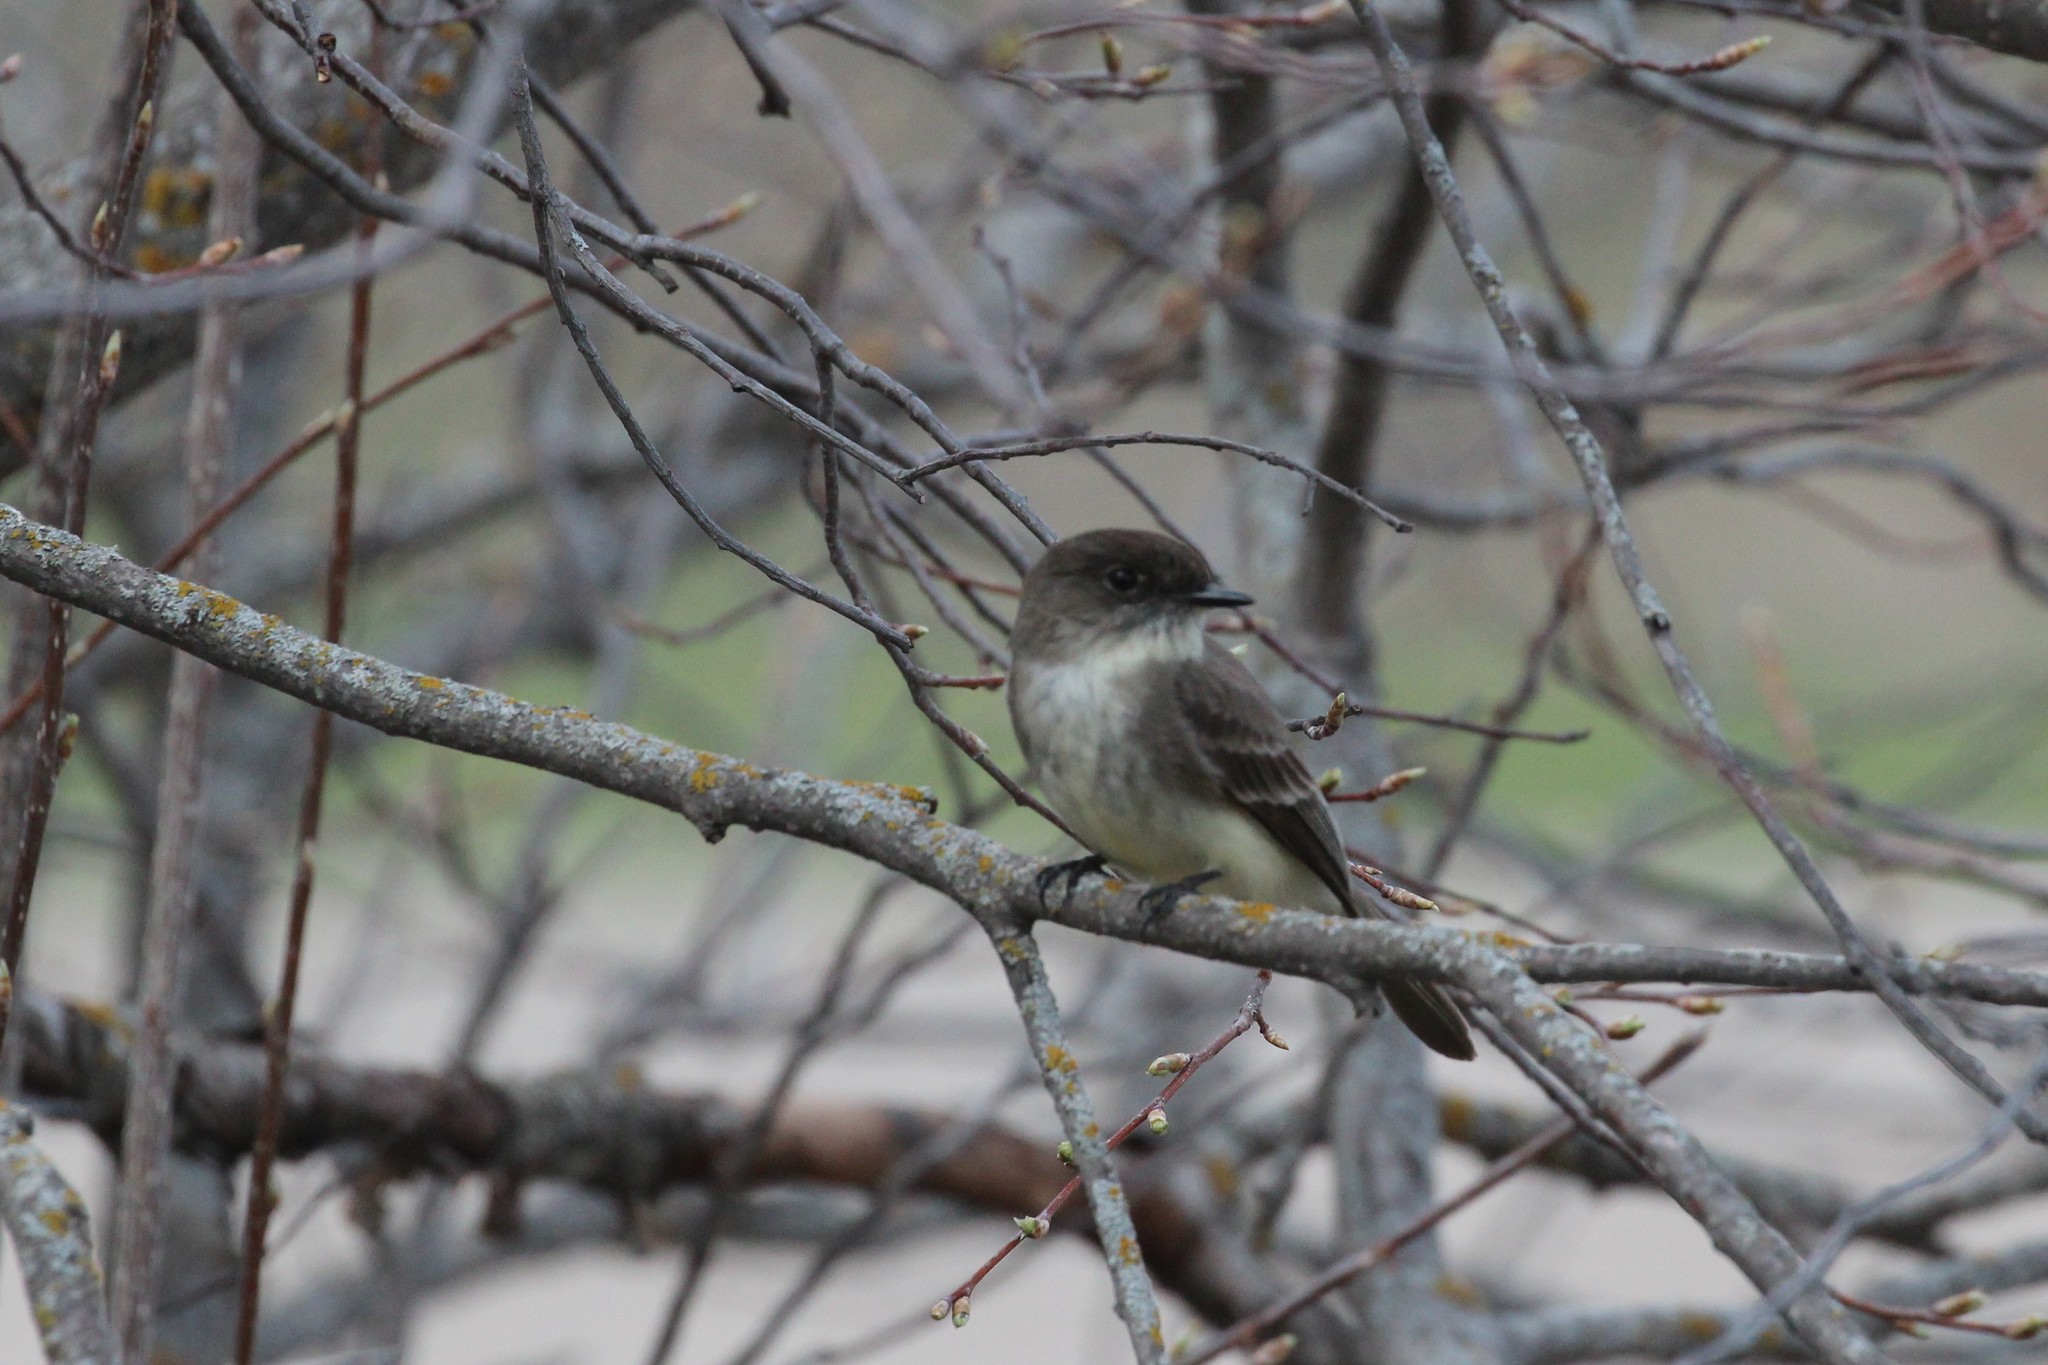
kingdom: Animalia
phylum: Chordata
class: Aves
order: Passeriformes
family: Tyrannidae
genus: Sayornis
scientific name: Sayornis phoebe
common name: Eastern phoebe
